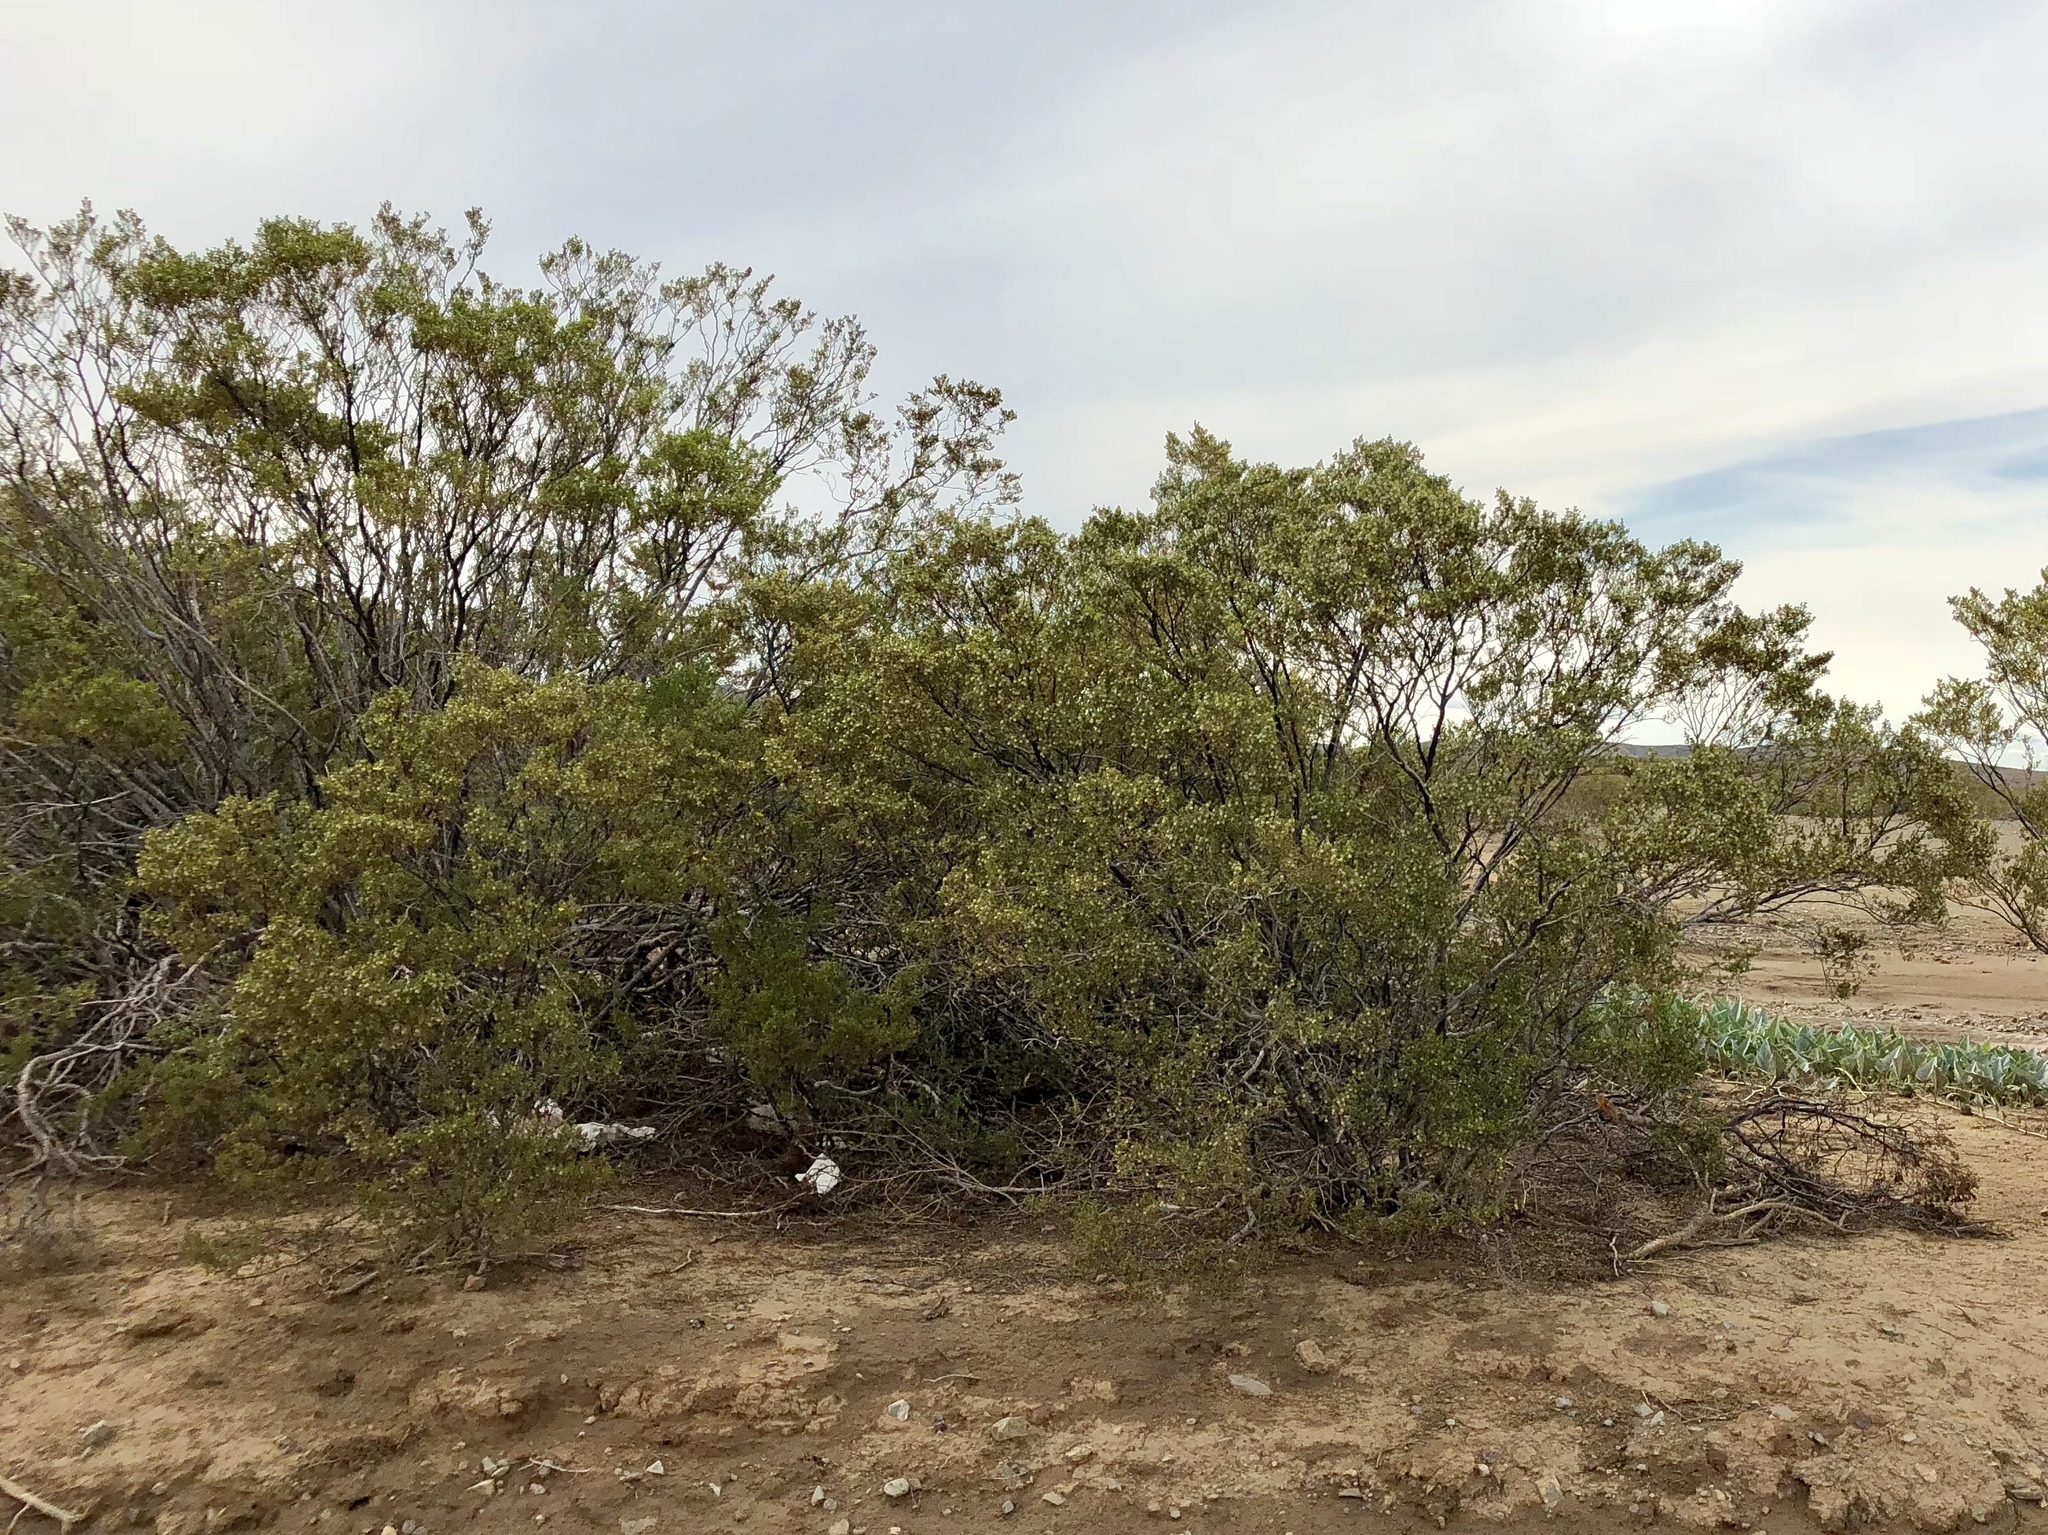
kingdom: Plantae
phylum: Tracheophyta
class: Magnoliopsida
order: Zygophyllales
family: Zygophyllaceae
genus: Larrea
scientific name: Larrea tridentata
